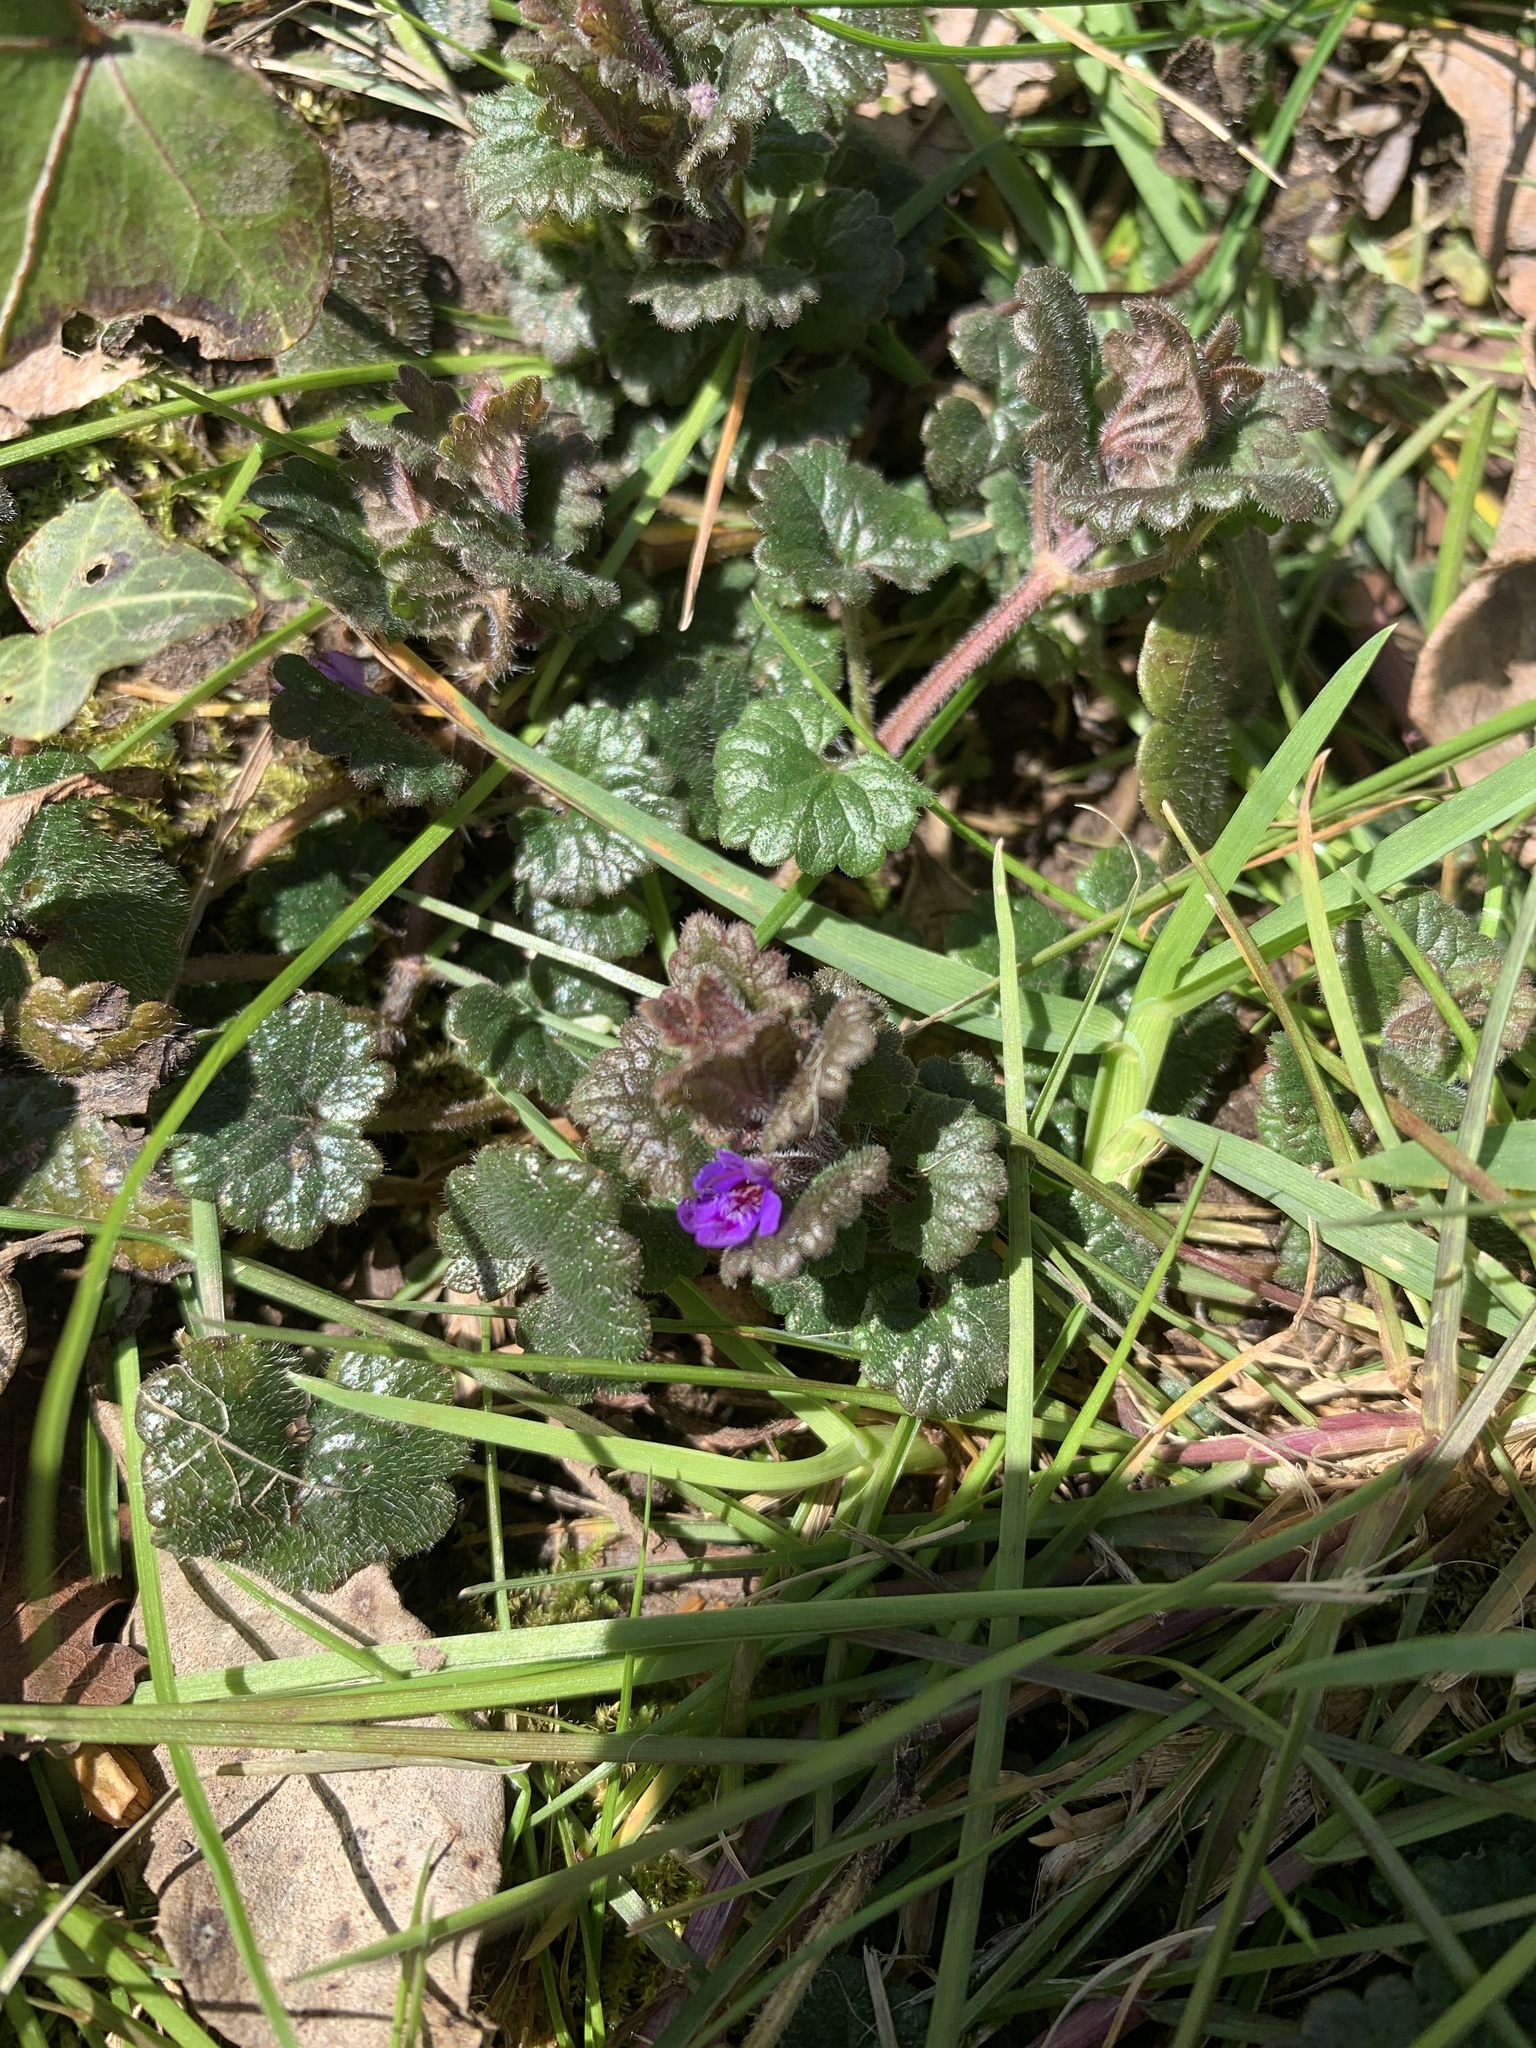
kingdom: Plantae
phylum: Tracheophyta
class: Magnoliopsida
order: Lamiales
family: Lamiaceae
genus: Glechoma
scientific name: Glechoma hederacea
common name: Ground ivy
